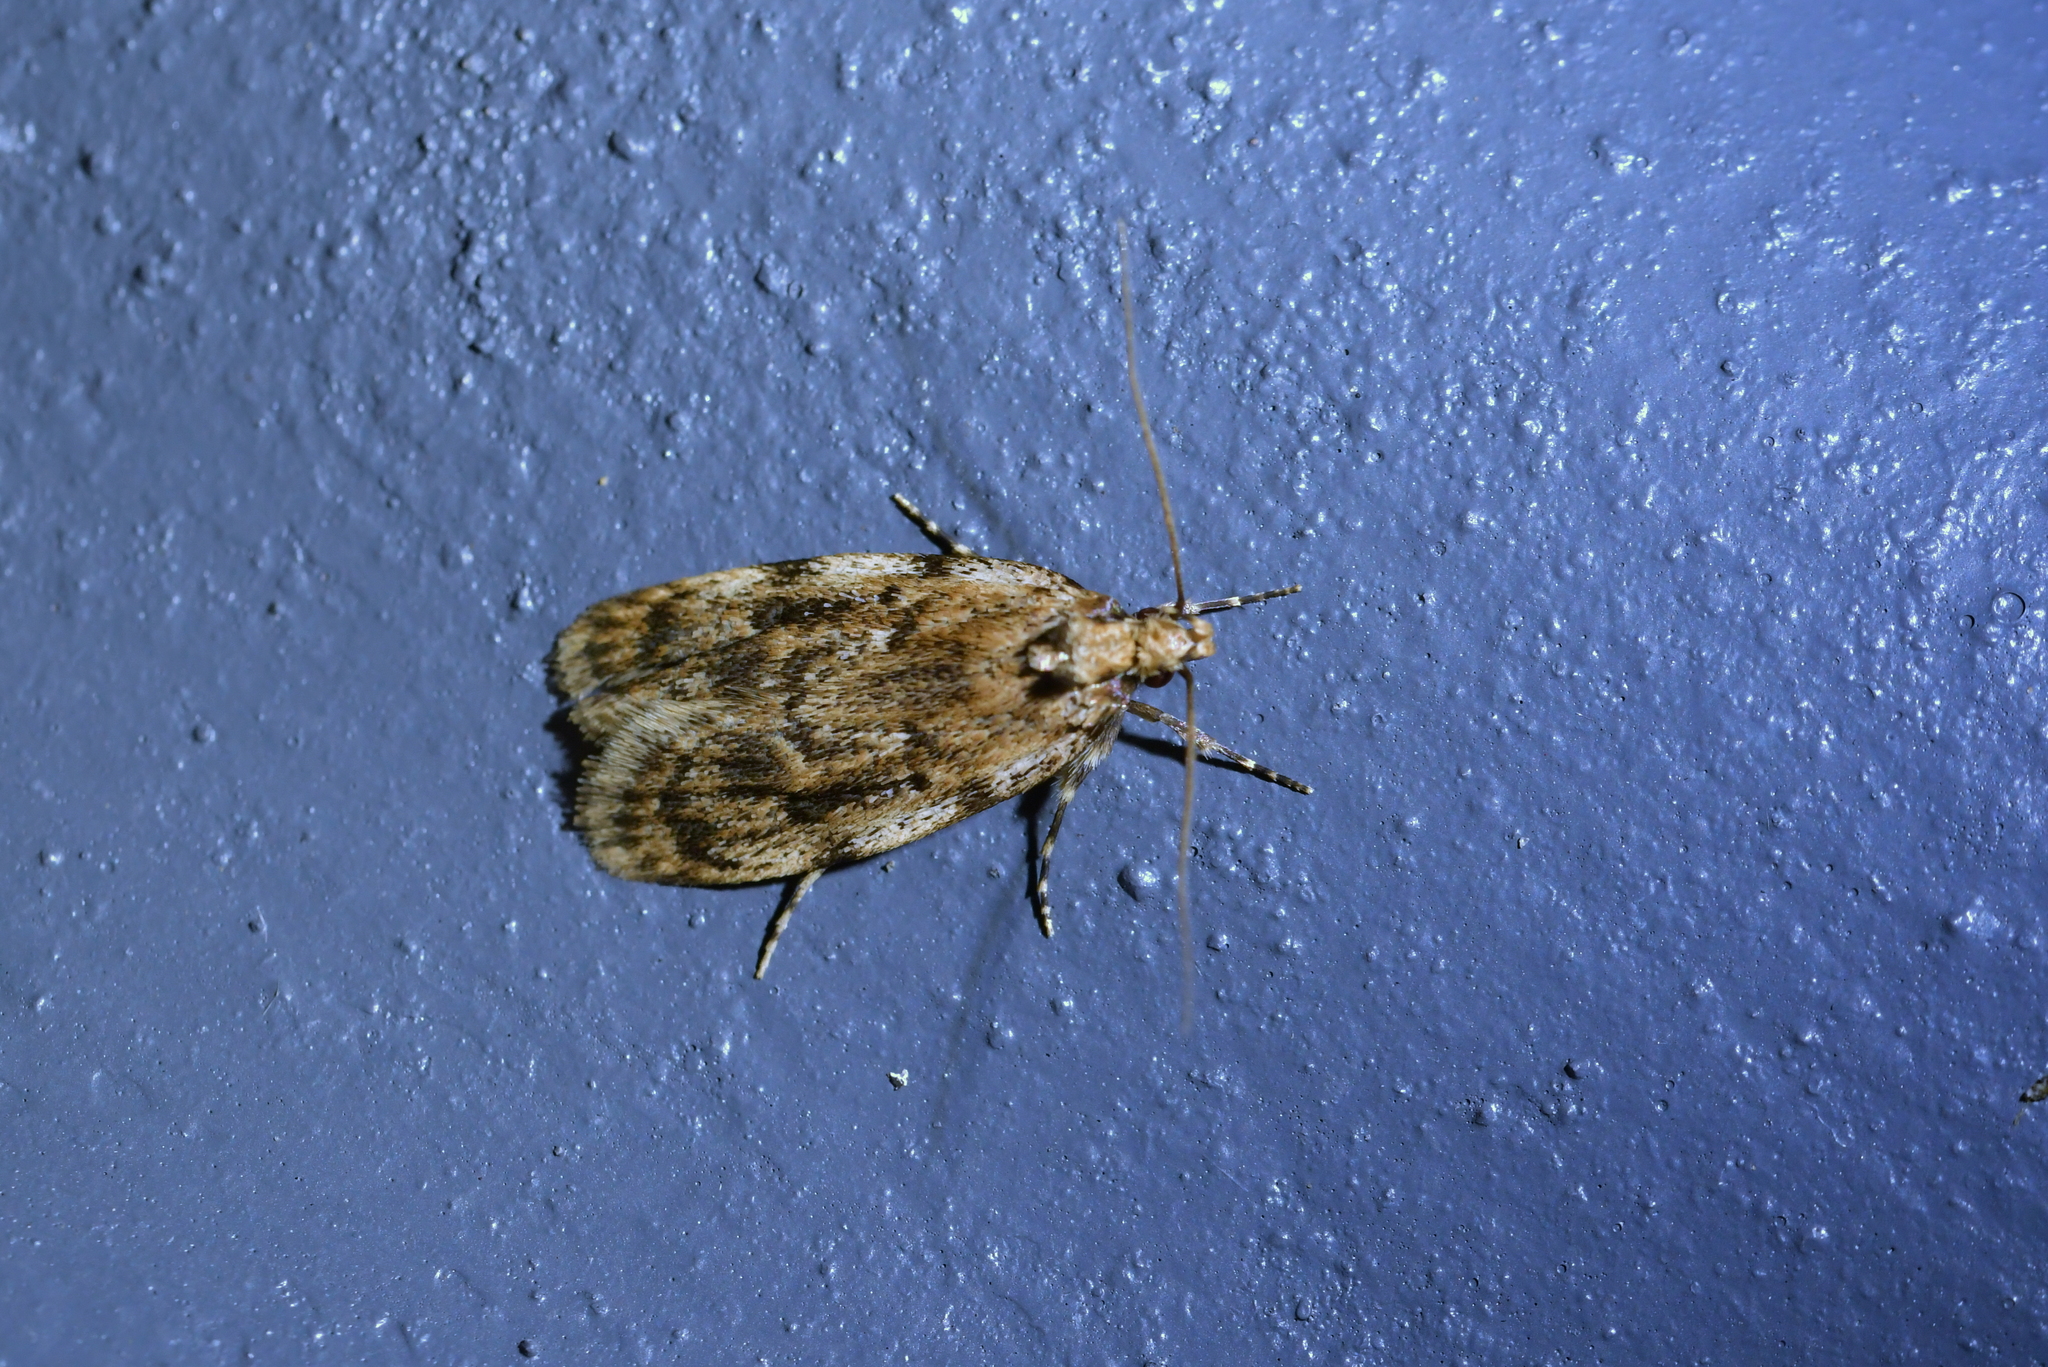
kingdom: Animalia
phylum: Arthropoda
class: Insecta
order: Lepidoptera
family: Oecophoridae
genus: Barea
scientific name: Barea exarcha
